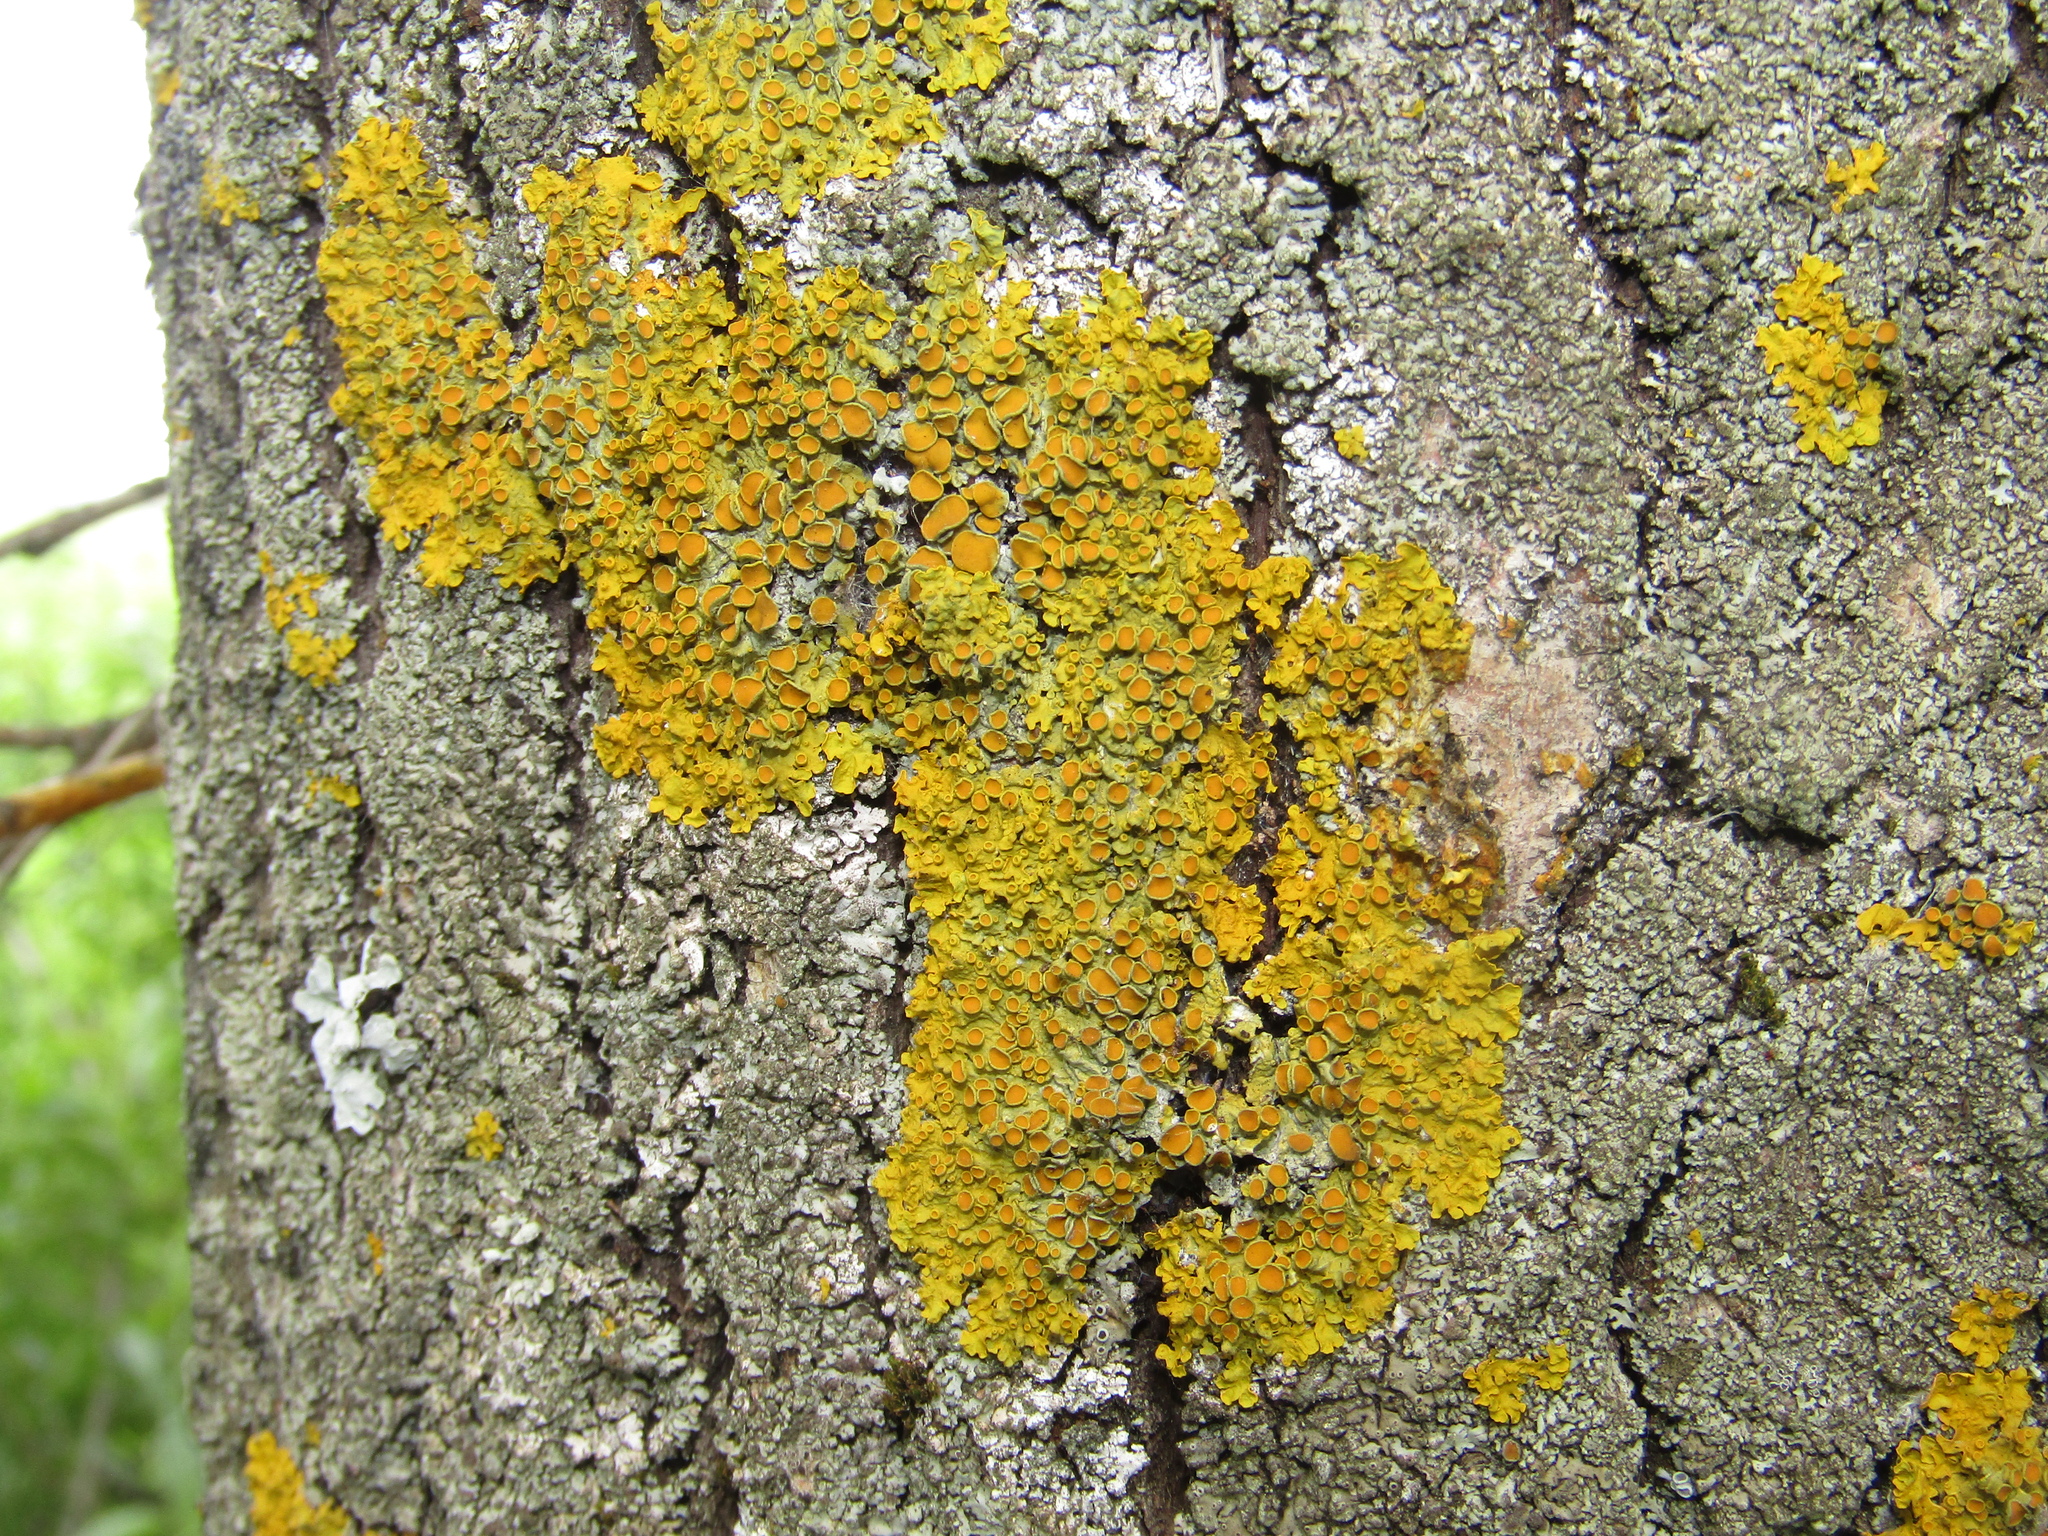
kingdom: Fungi
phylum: Ascomycota
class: Lecanoromycetes
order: Teloschistales
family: Teloschistaceae
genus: Xanthoria
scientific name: Xanthoria parietina
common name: Common orange lichen
